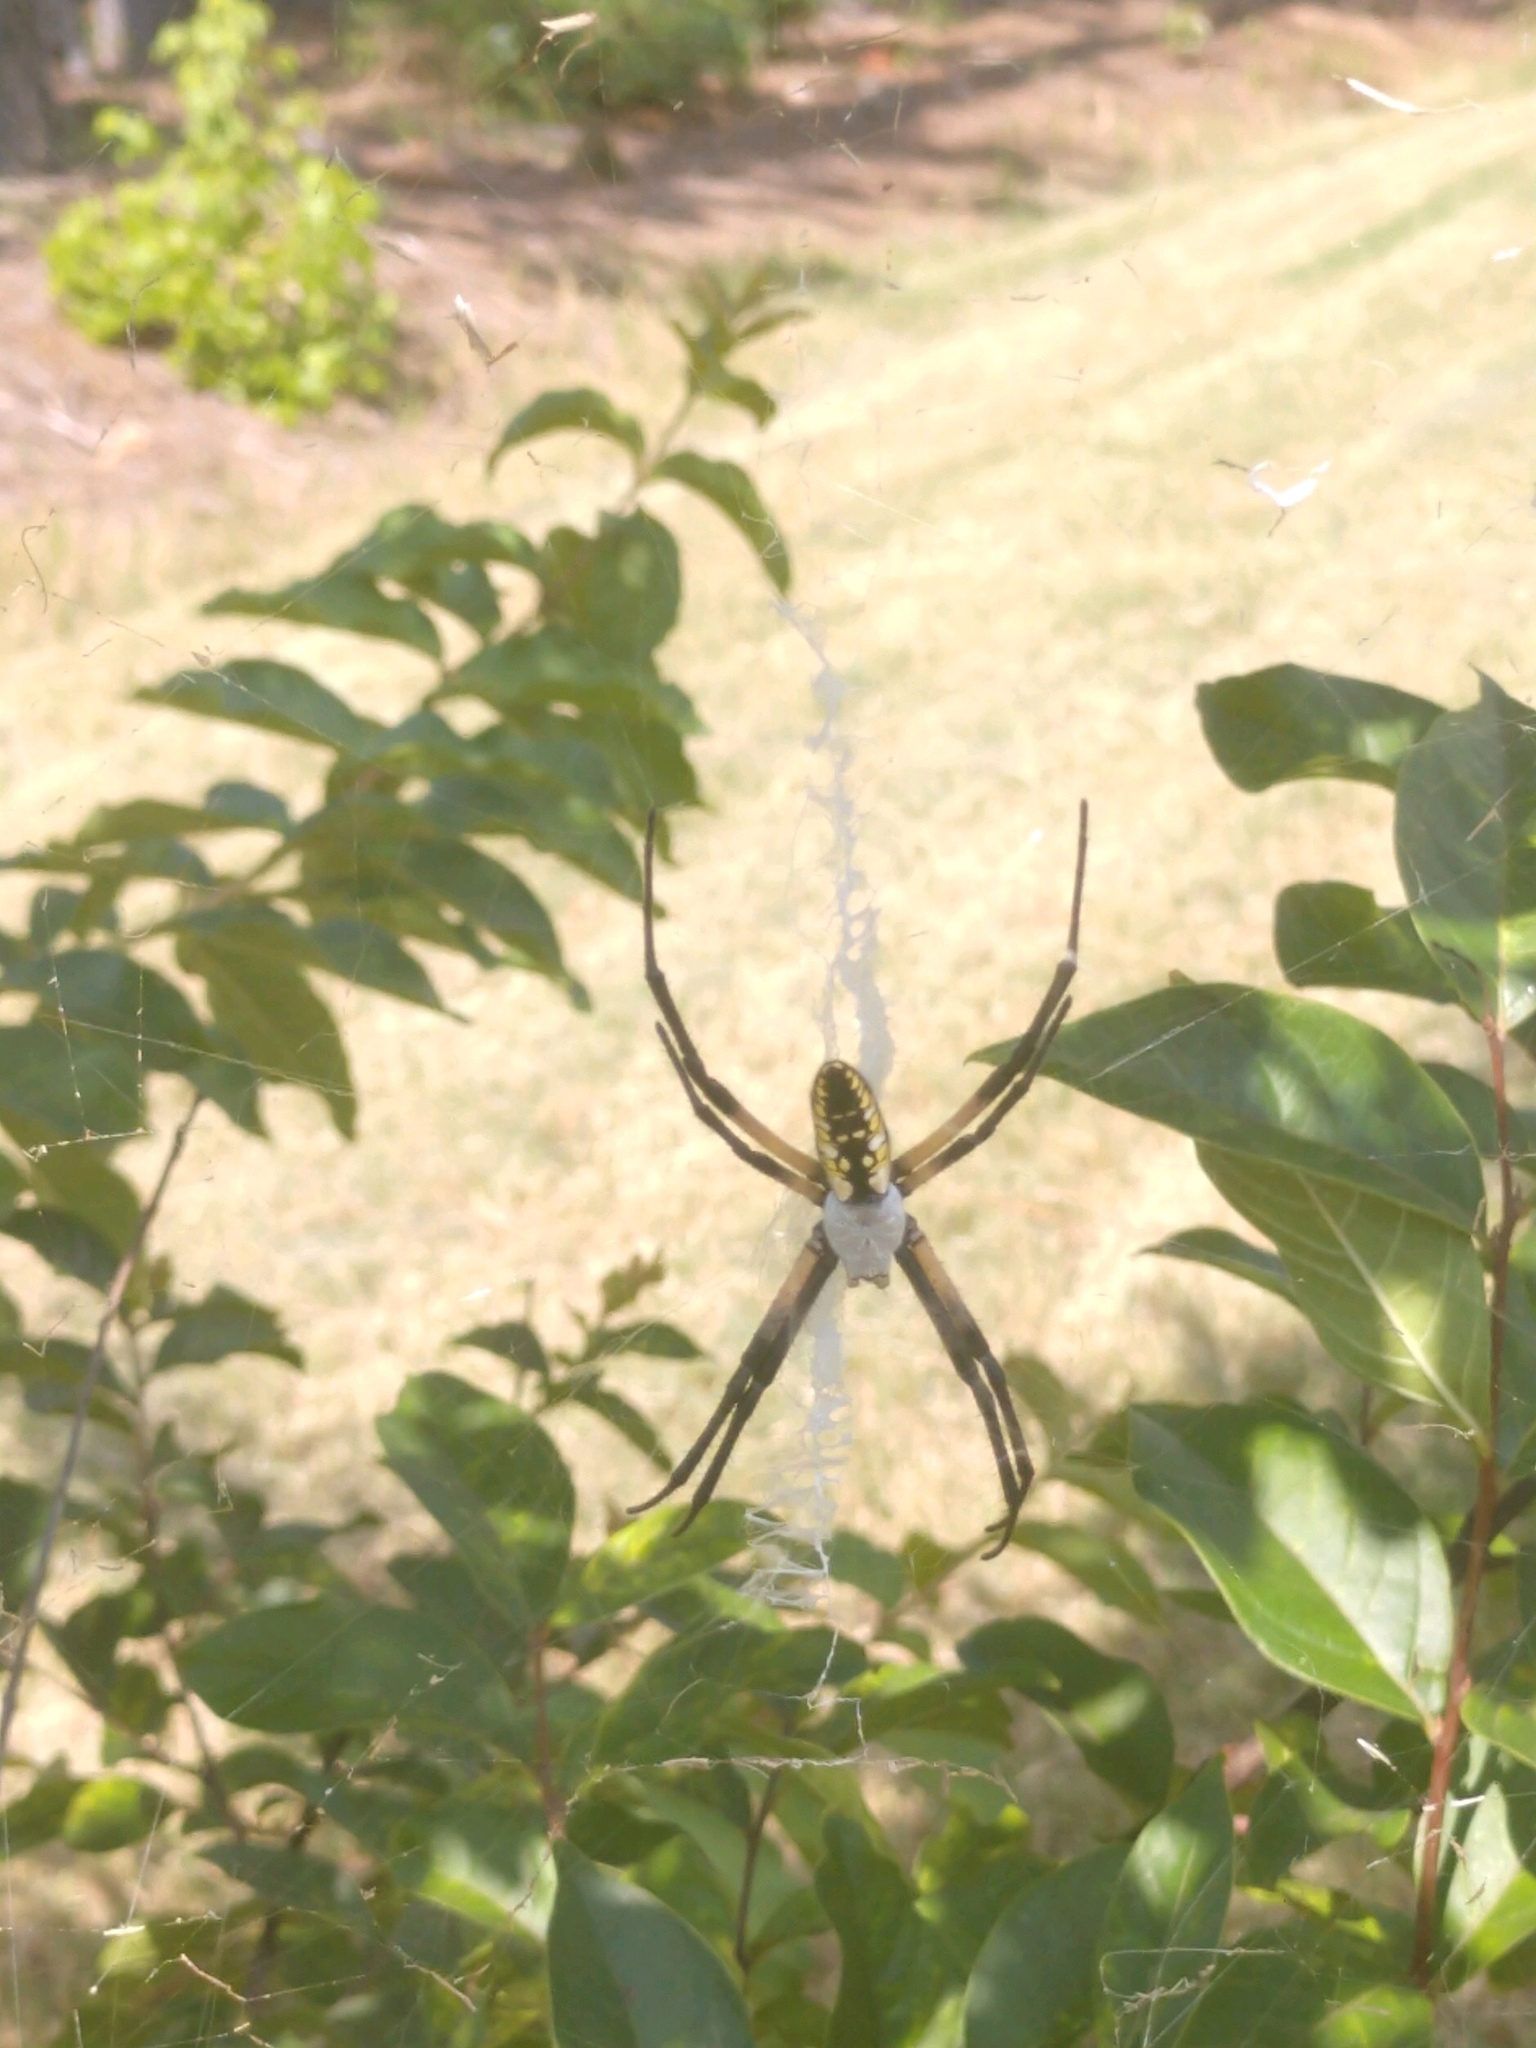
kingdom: Animalia
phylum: Arthropoda
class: Arachnida
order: Araneae
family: Araneidae
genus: Argiope
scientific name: Argiope aurantia
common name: Orb weavers
